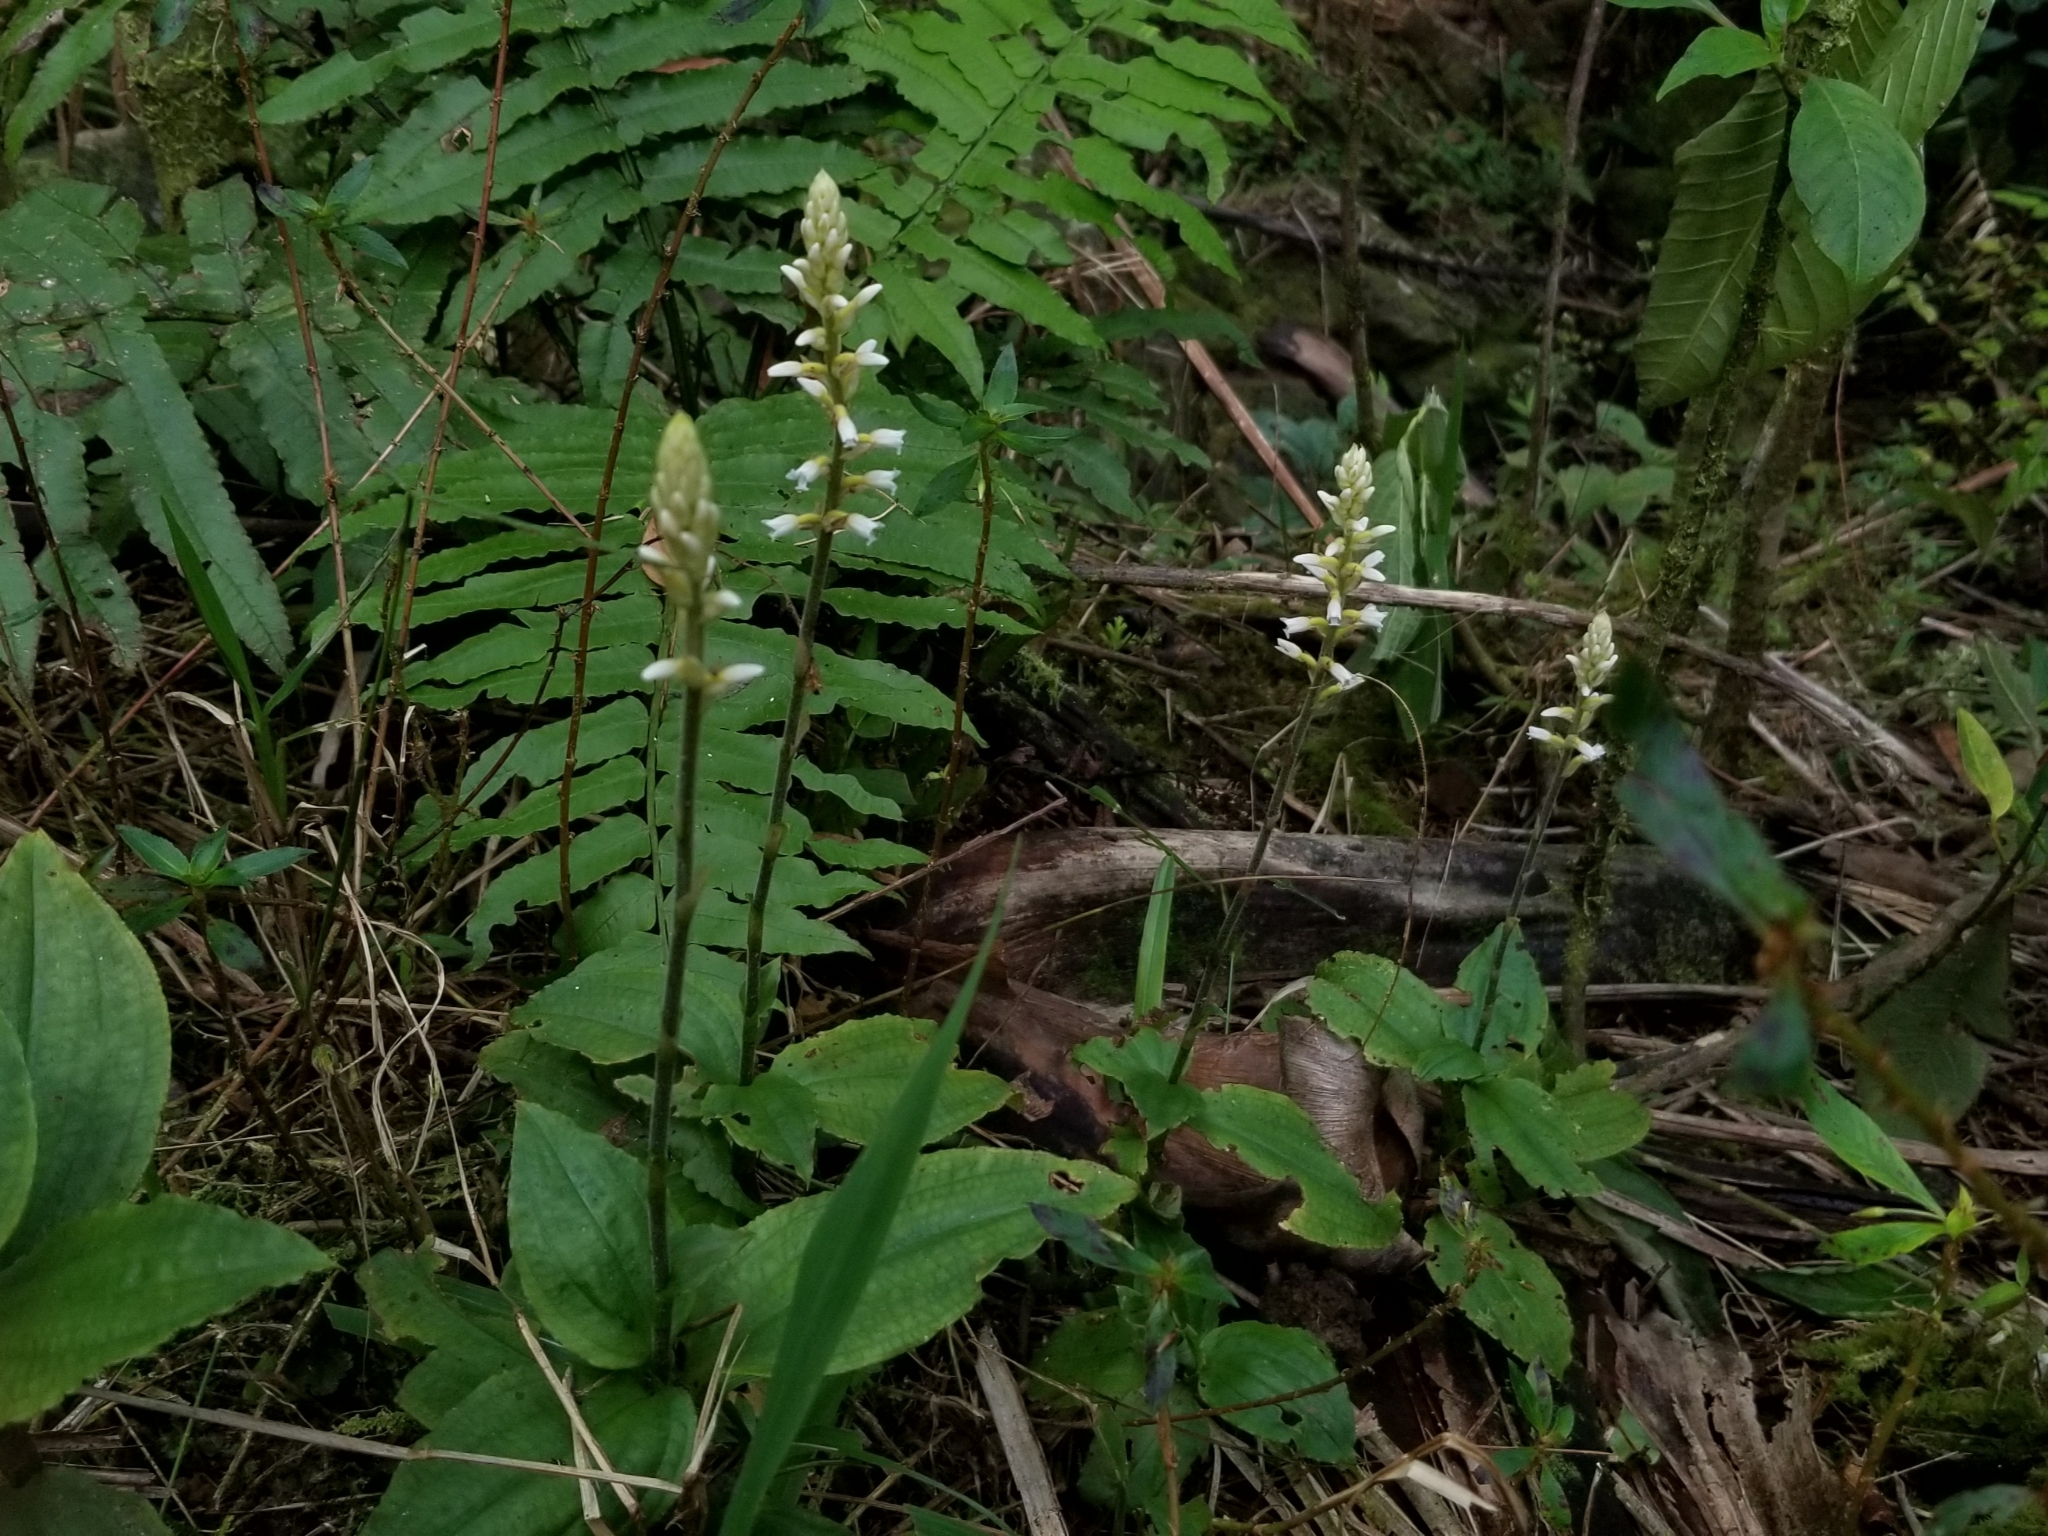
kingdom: Plantae
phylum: Tracheophyta
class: Liliopsida
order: Asparagales
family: Orchidaceae
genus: Microchilus
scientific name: Microchilus plantagineus
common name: Caribbean false helmetorchid
